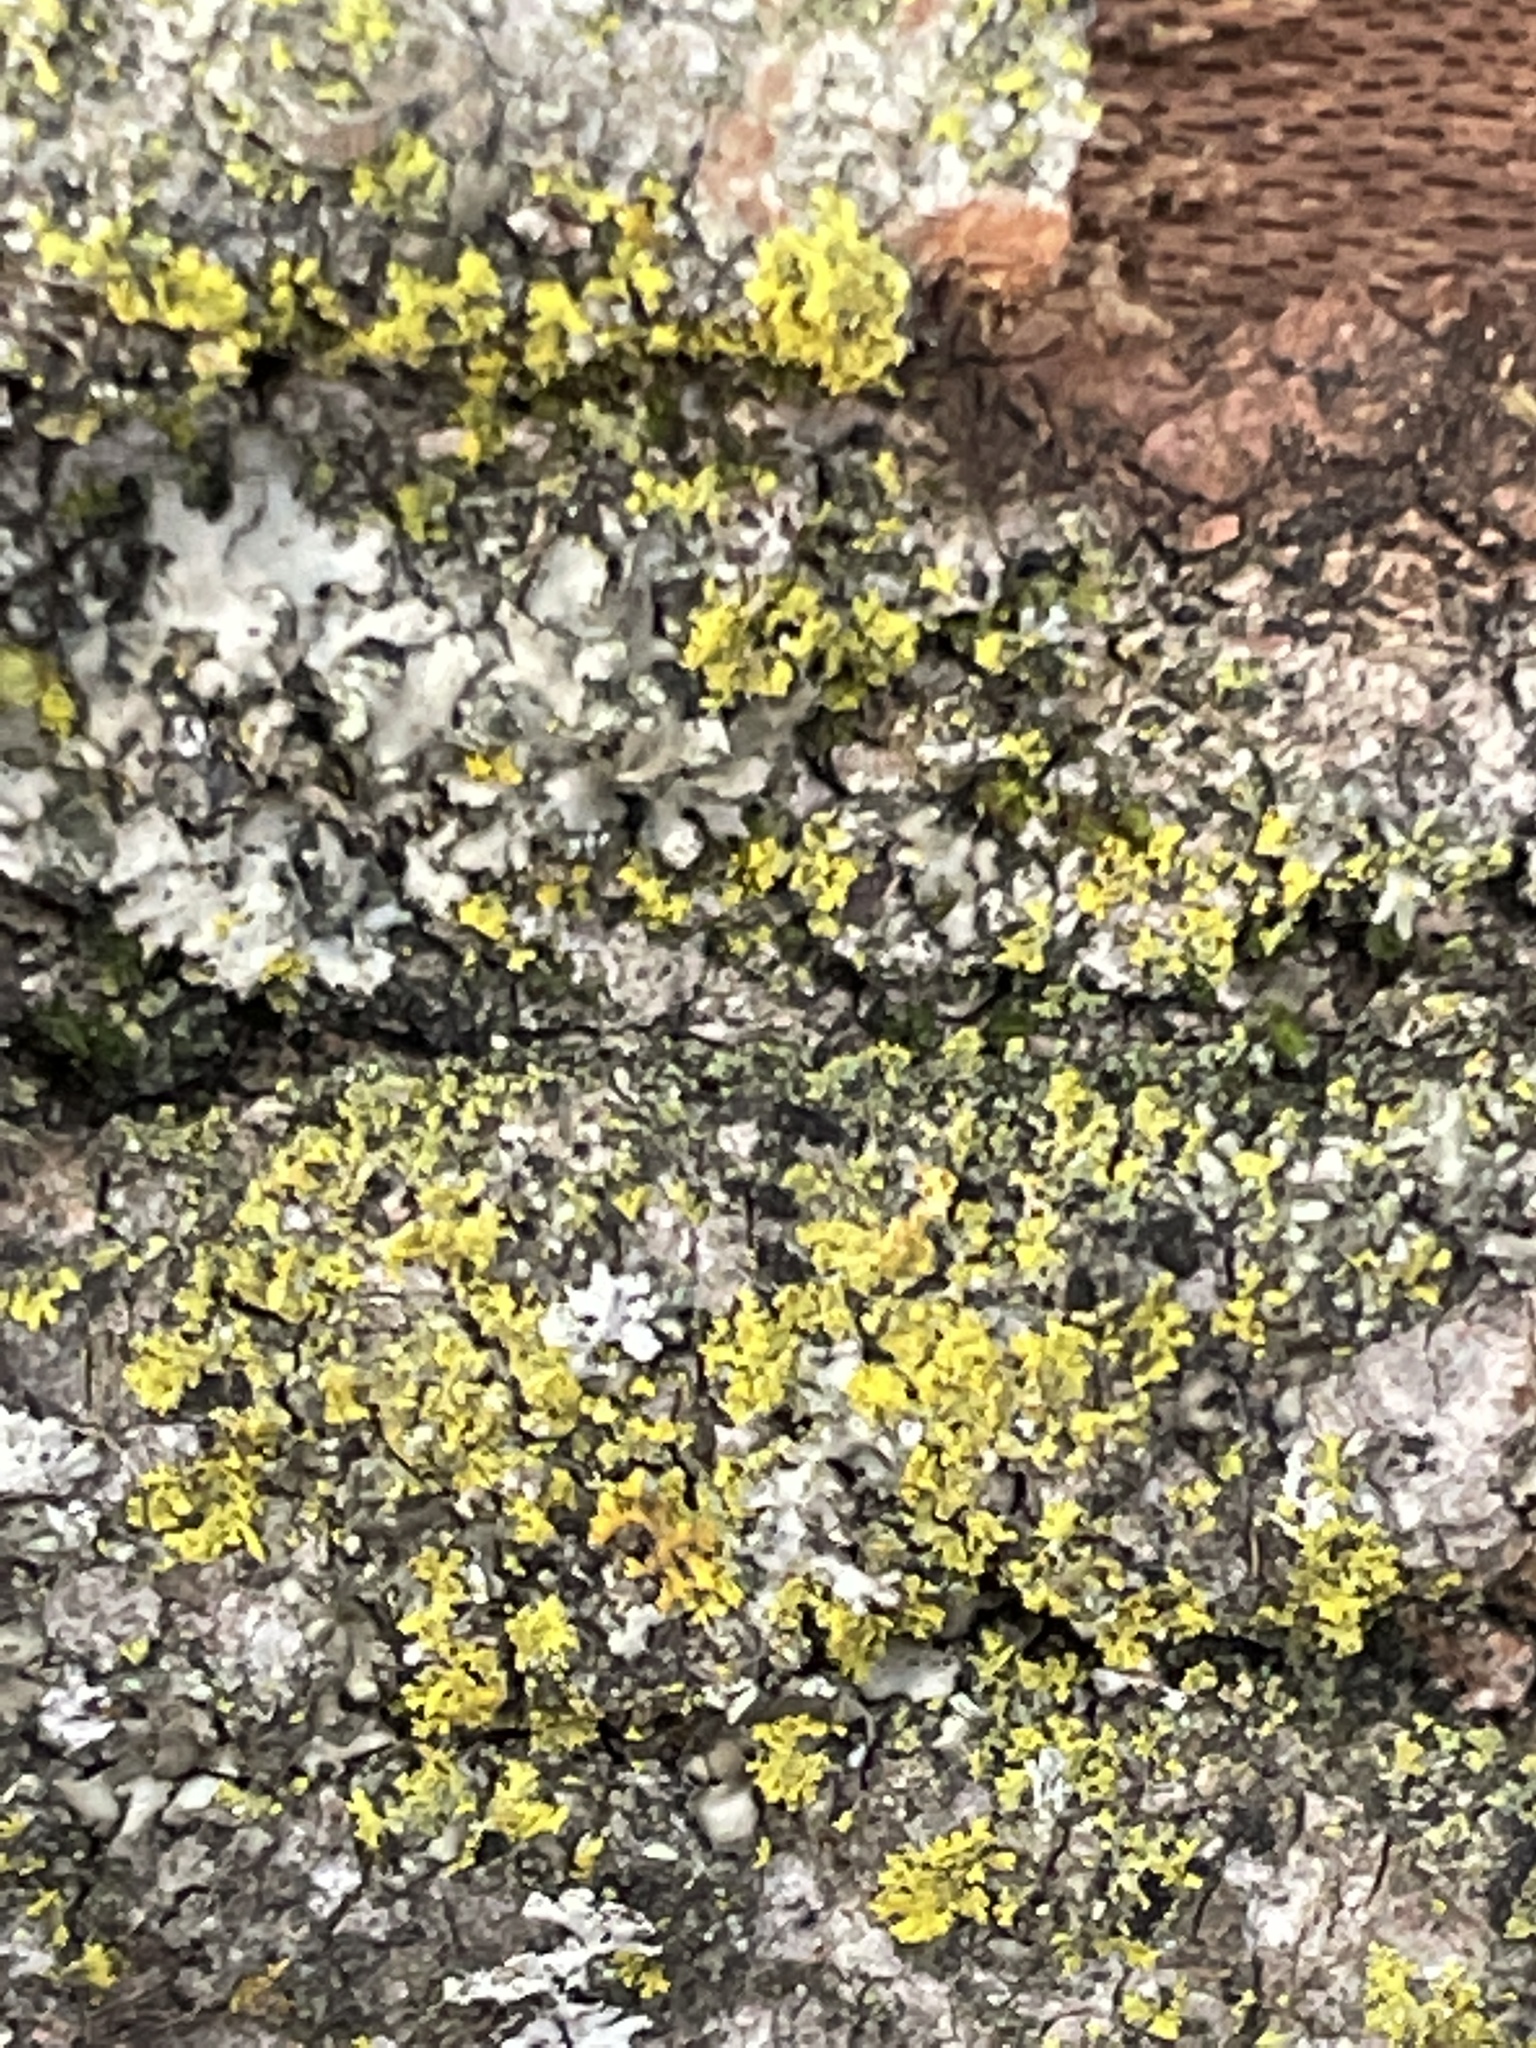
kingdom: Fungi
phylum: Ascomycota
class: Candelariomycetes
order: Candelariales
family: Candelariaceae
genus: Candelaria
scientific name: Candelaria concolor
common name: Candleflame lichen
